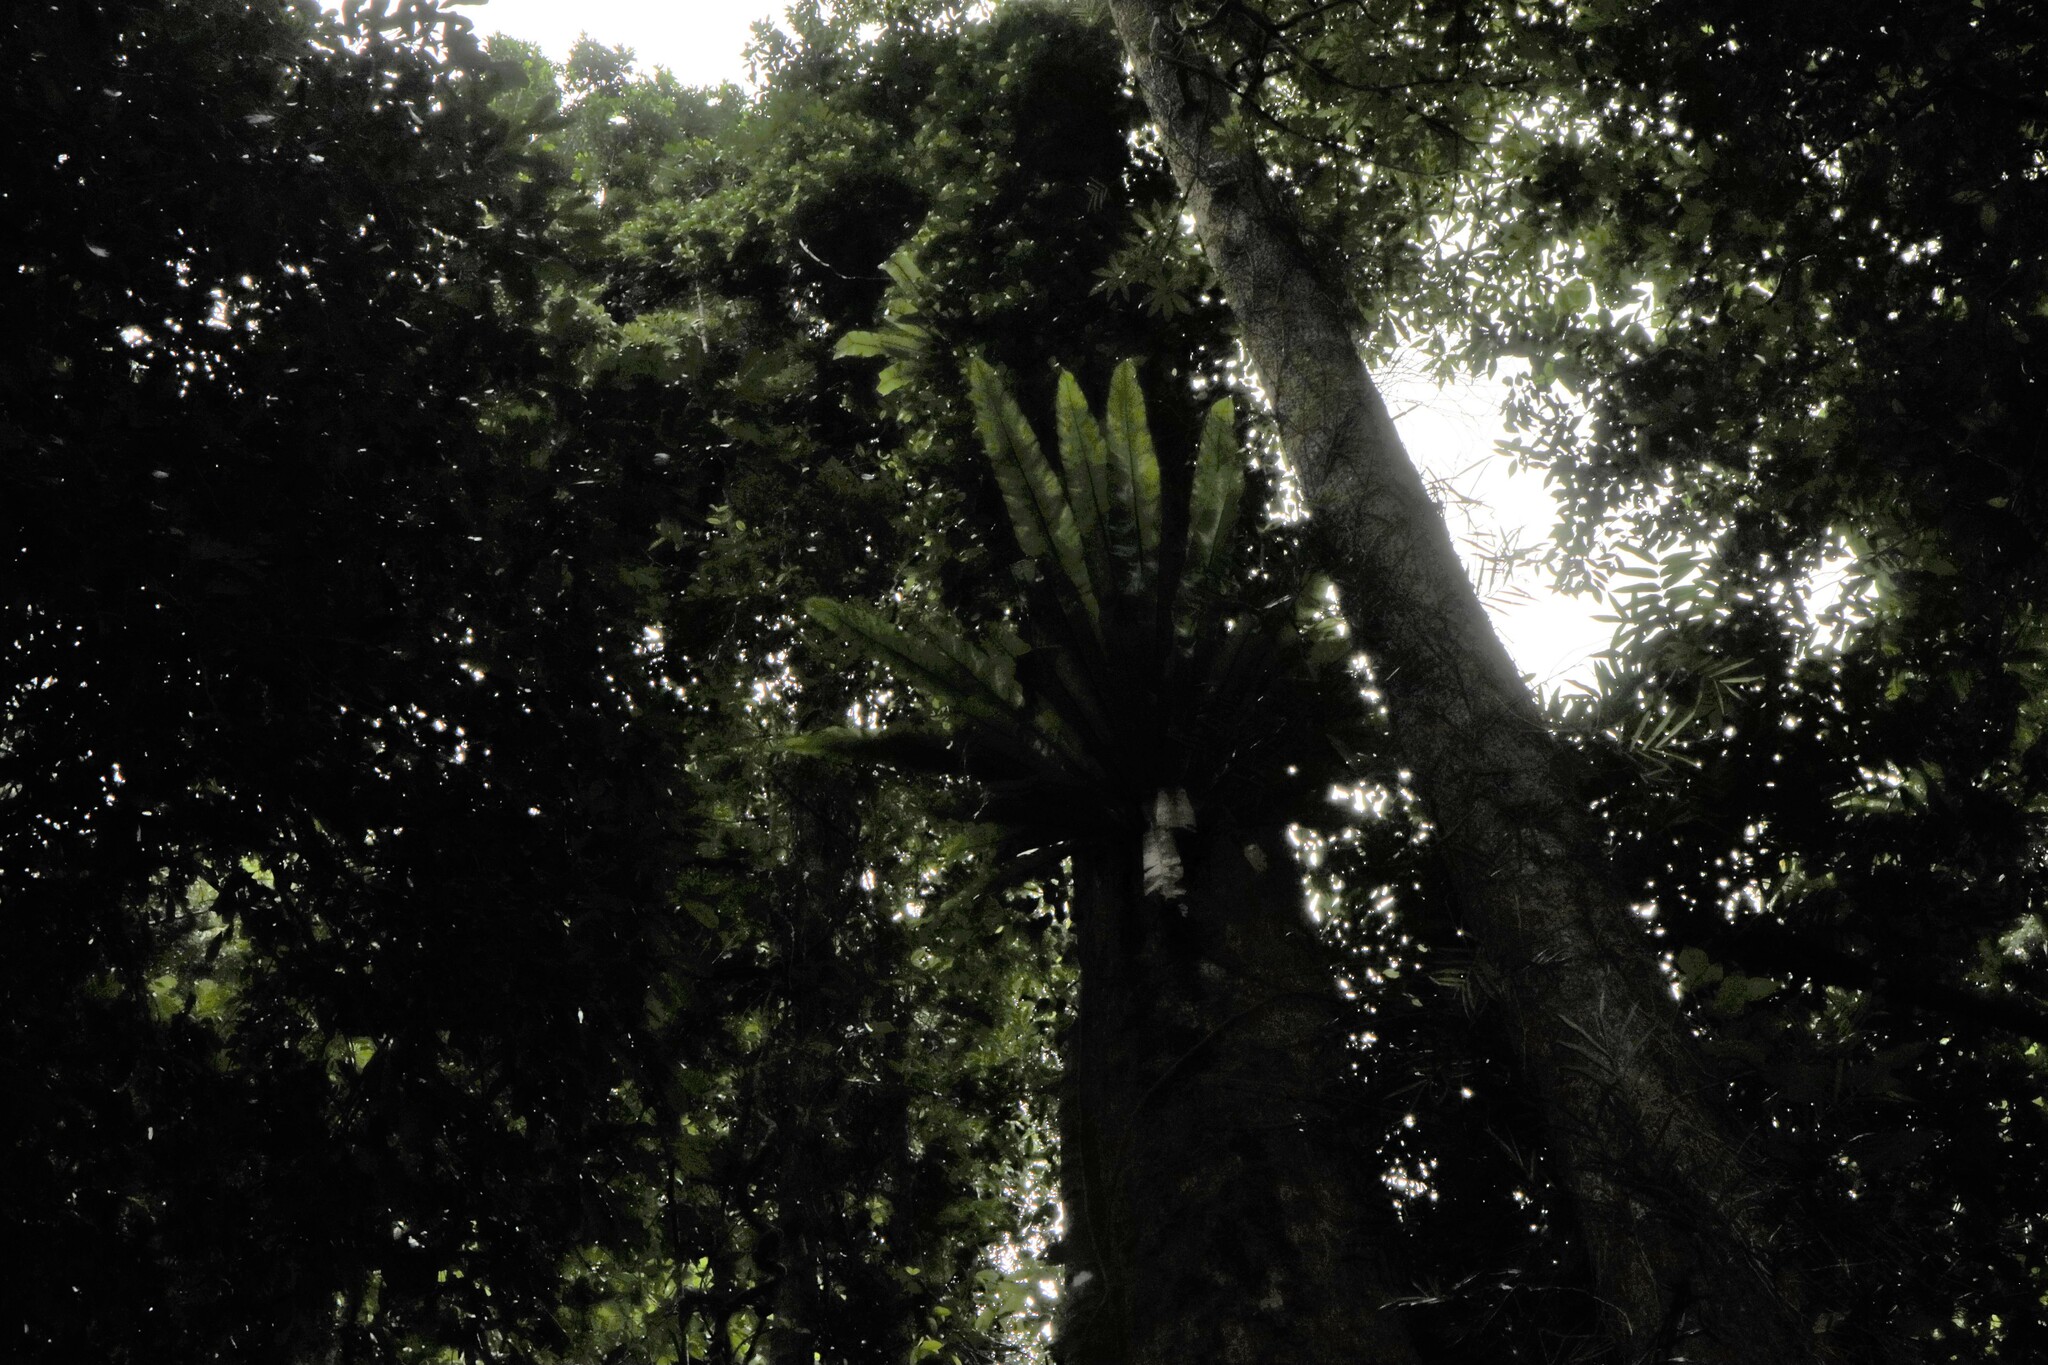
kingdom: Plantae
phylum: Tracheophyta
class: Polypodiopsida
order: Polypodiales
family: Aspleniaceae
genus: Asplenium
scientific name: Asplenium australasicum
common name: Bird's-nest fern
